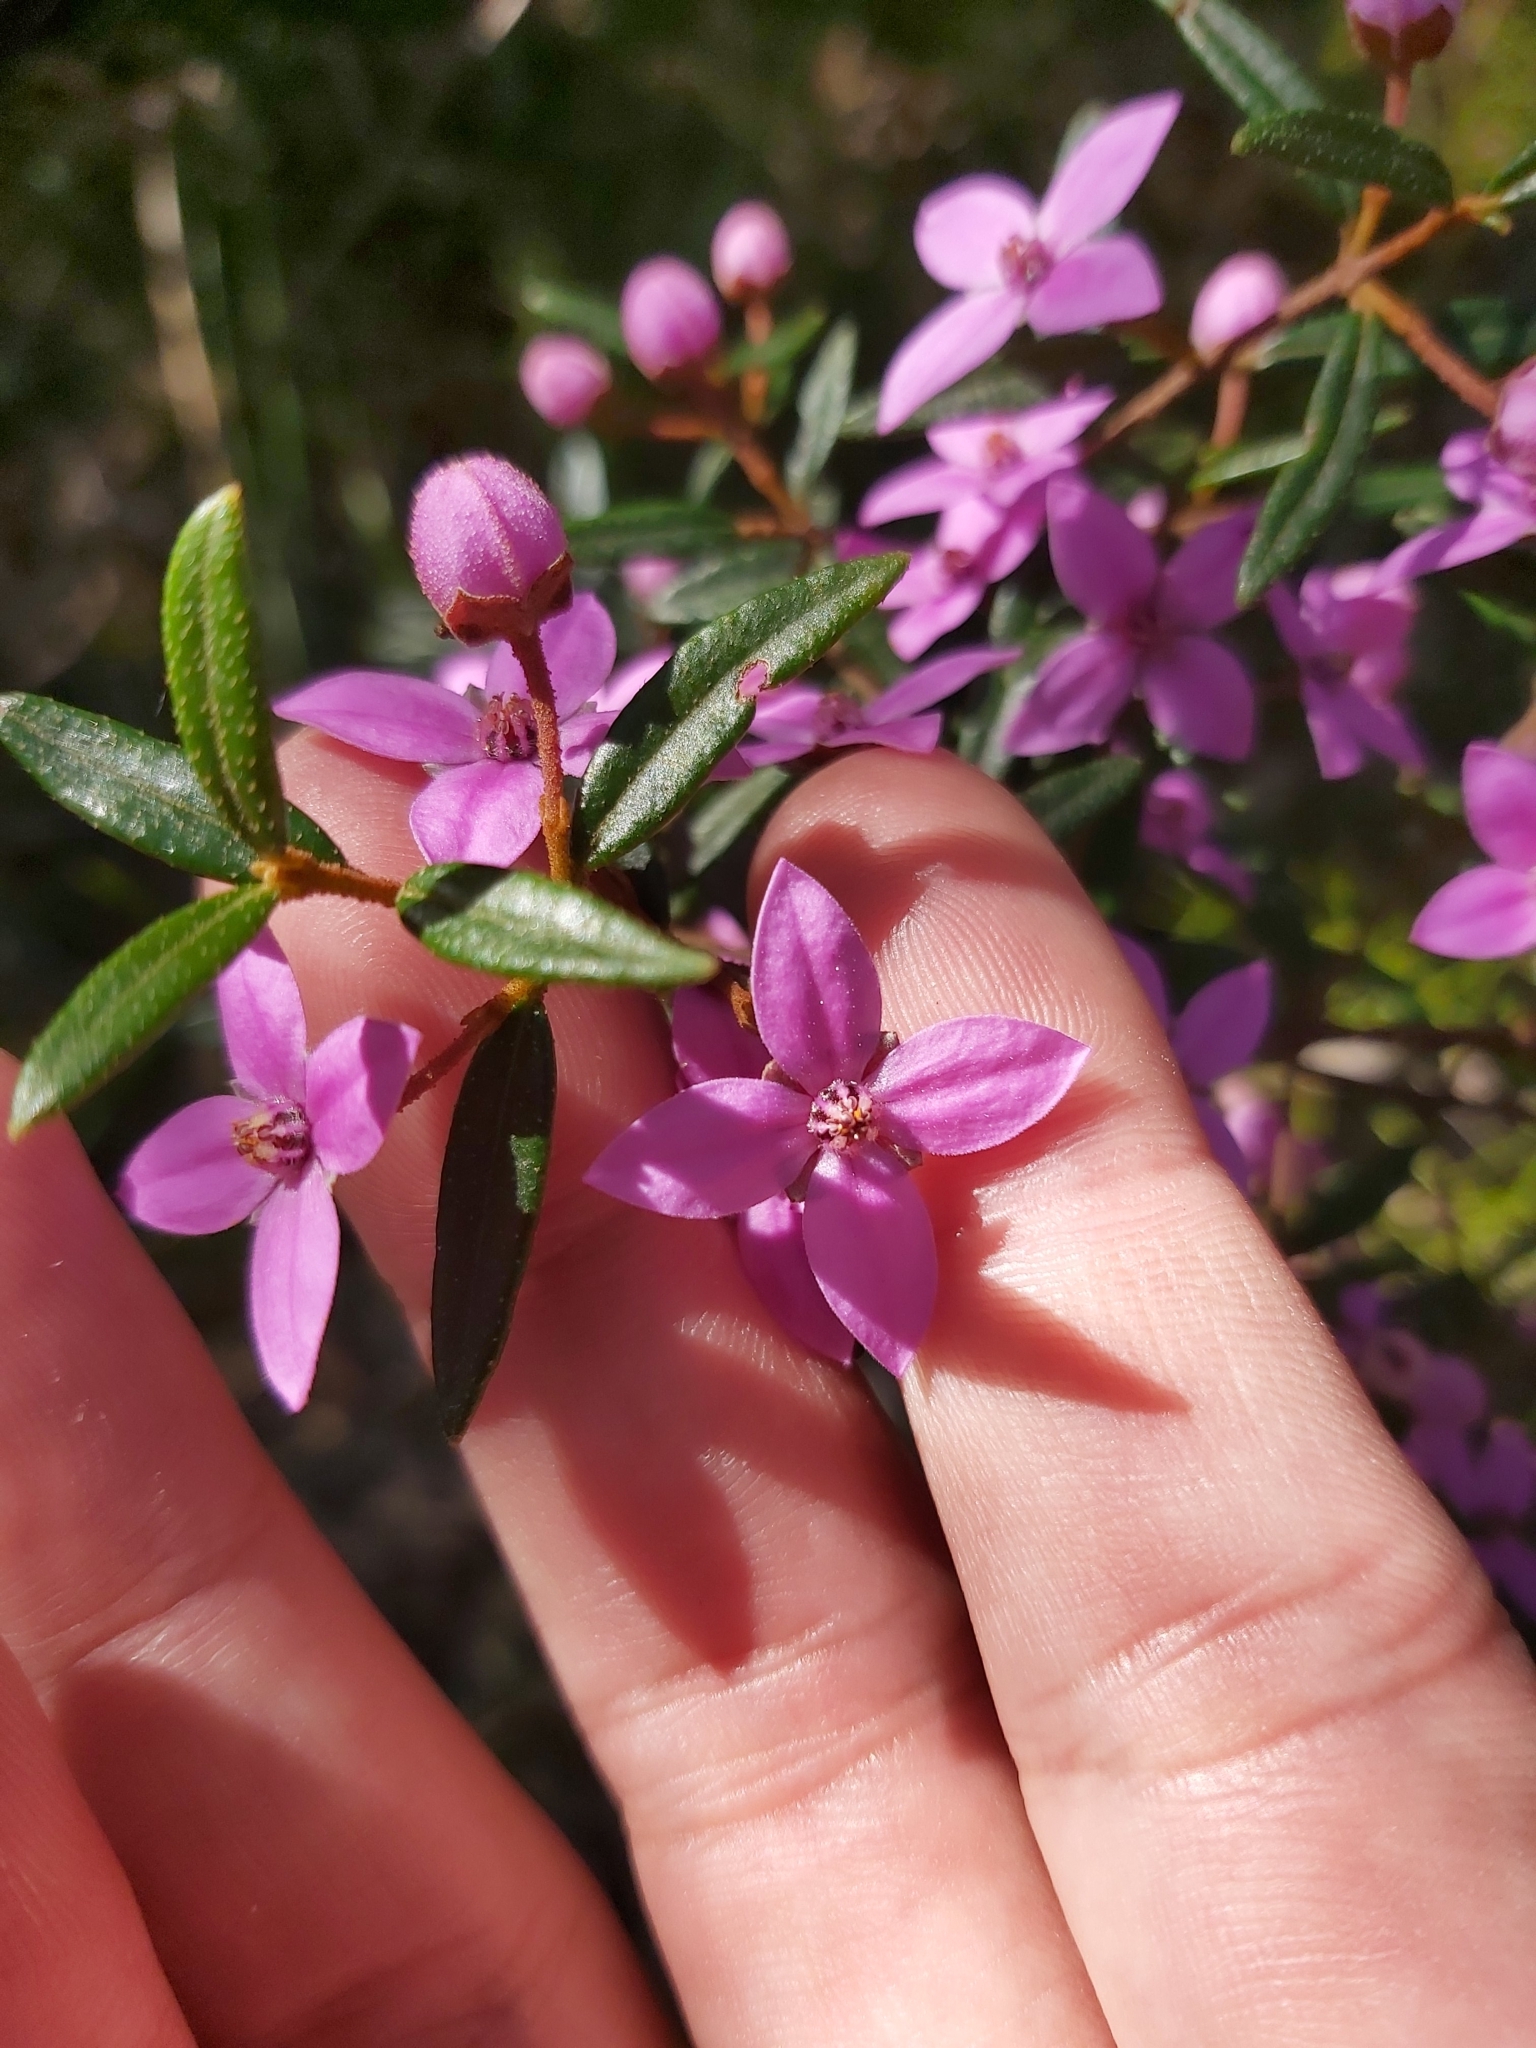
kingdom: Plantae
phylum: Tracheophyta
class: Magnoliopsida
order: Sapindales
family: Rutaceae
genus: Boronia
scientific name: Boronia ledifolia
